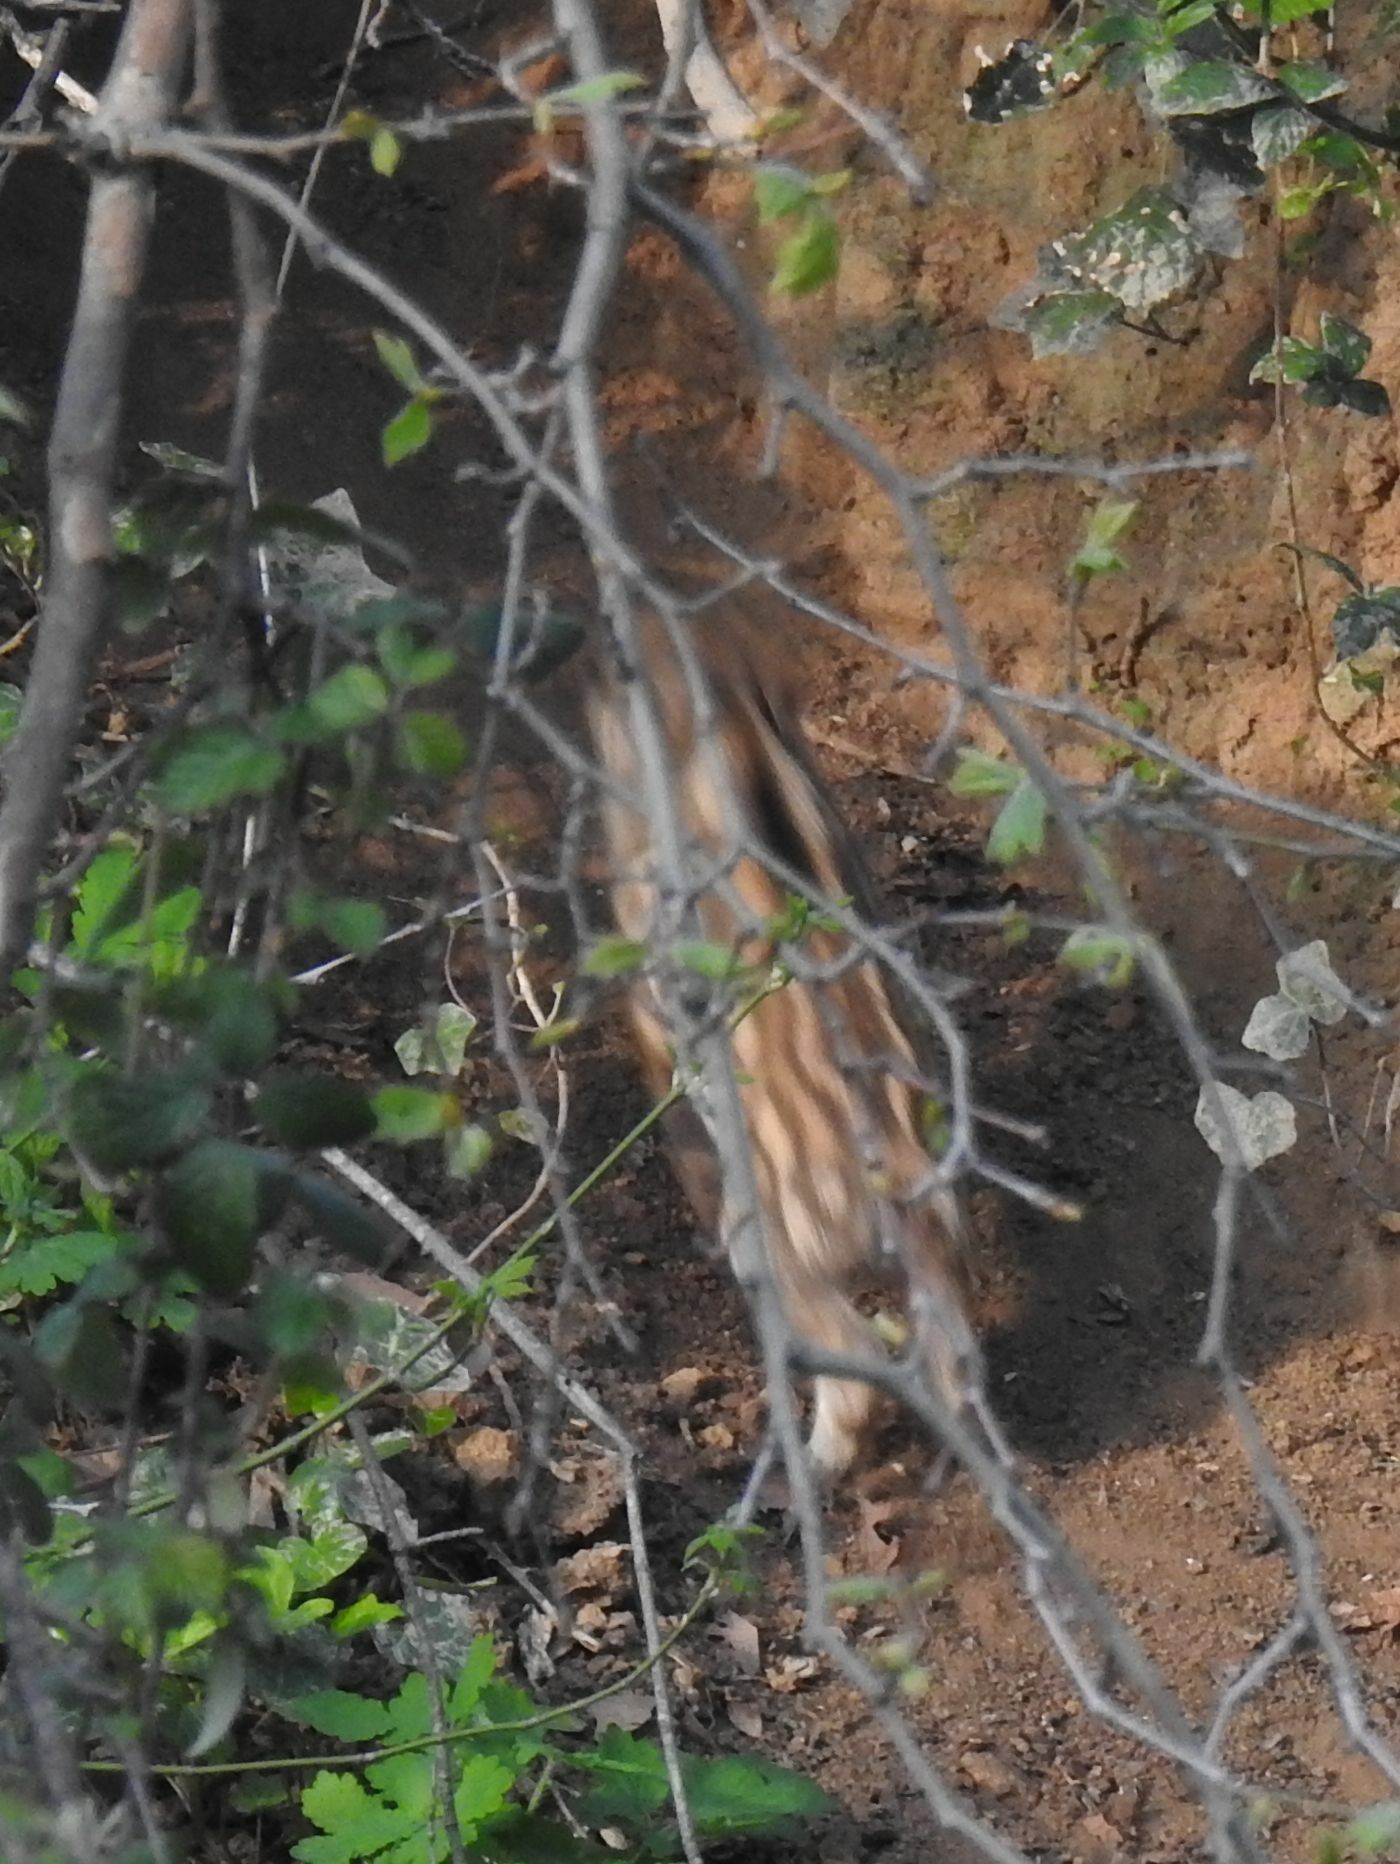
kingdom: Animalia
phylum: Chordata
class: Mammalia
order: Artiodactyla
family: Suidae
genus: Sus
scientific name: Sus scrofa
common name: Wild boar
